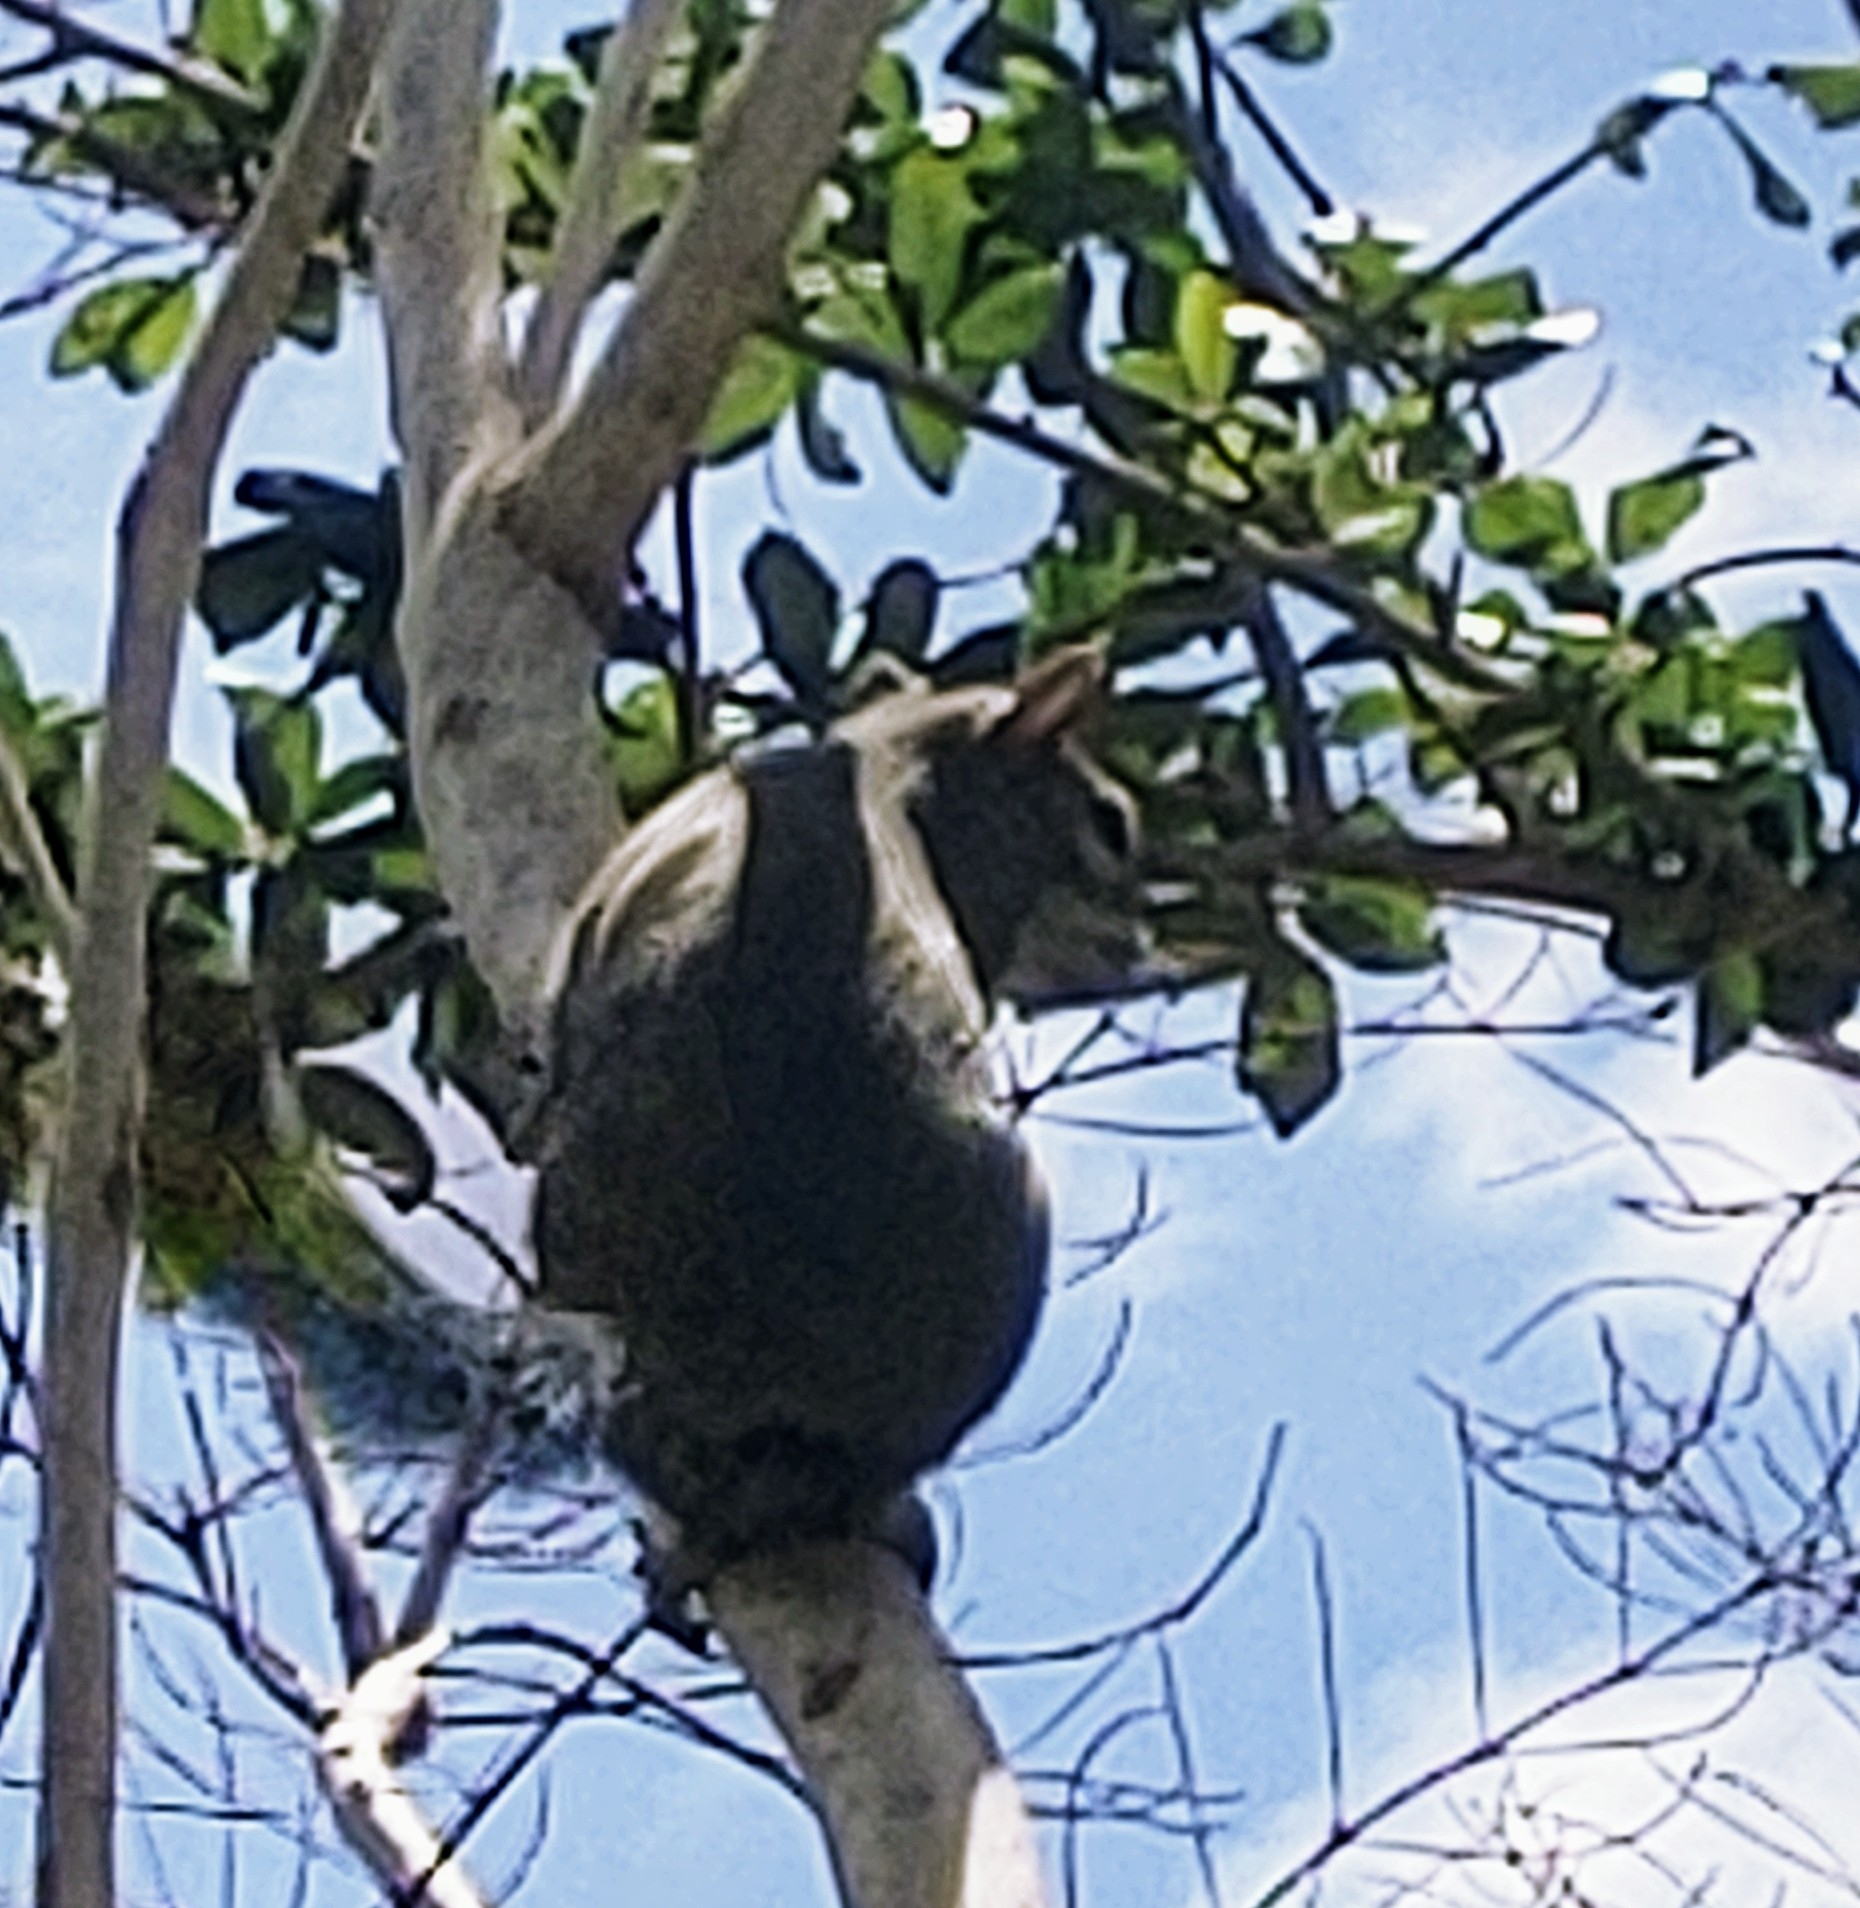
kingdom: Animalia
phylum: Chordata
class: Mammalia
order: Rodentia
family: Sciuridae
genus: Sciurus
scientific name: Sciurus carolinensis
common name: Eastern gray squirrel
